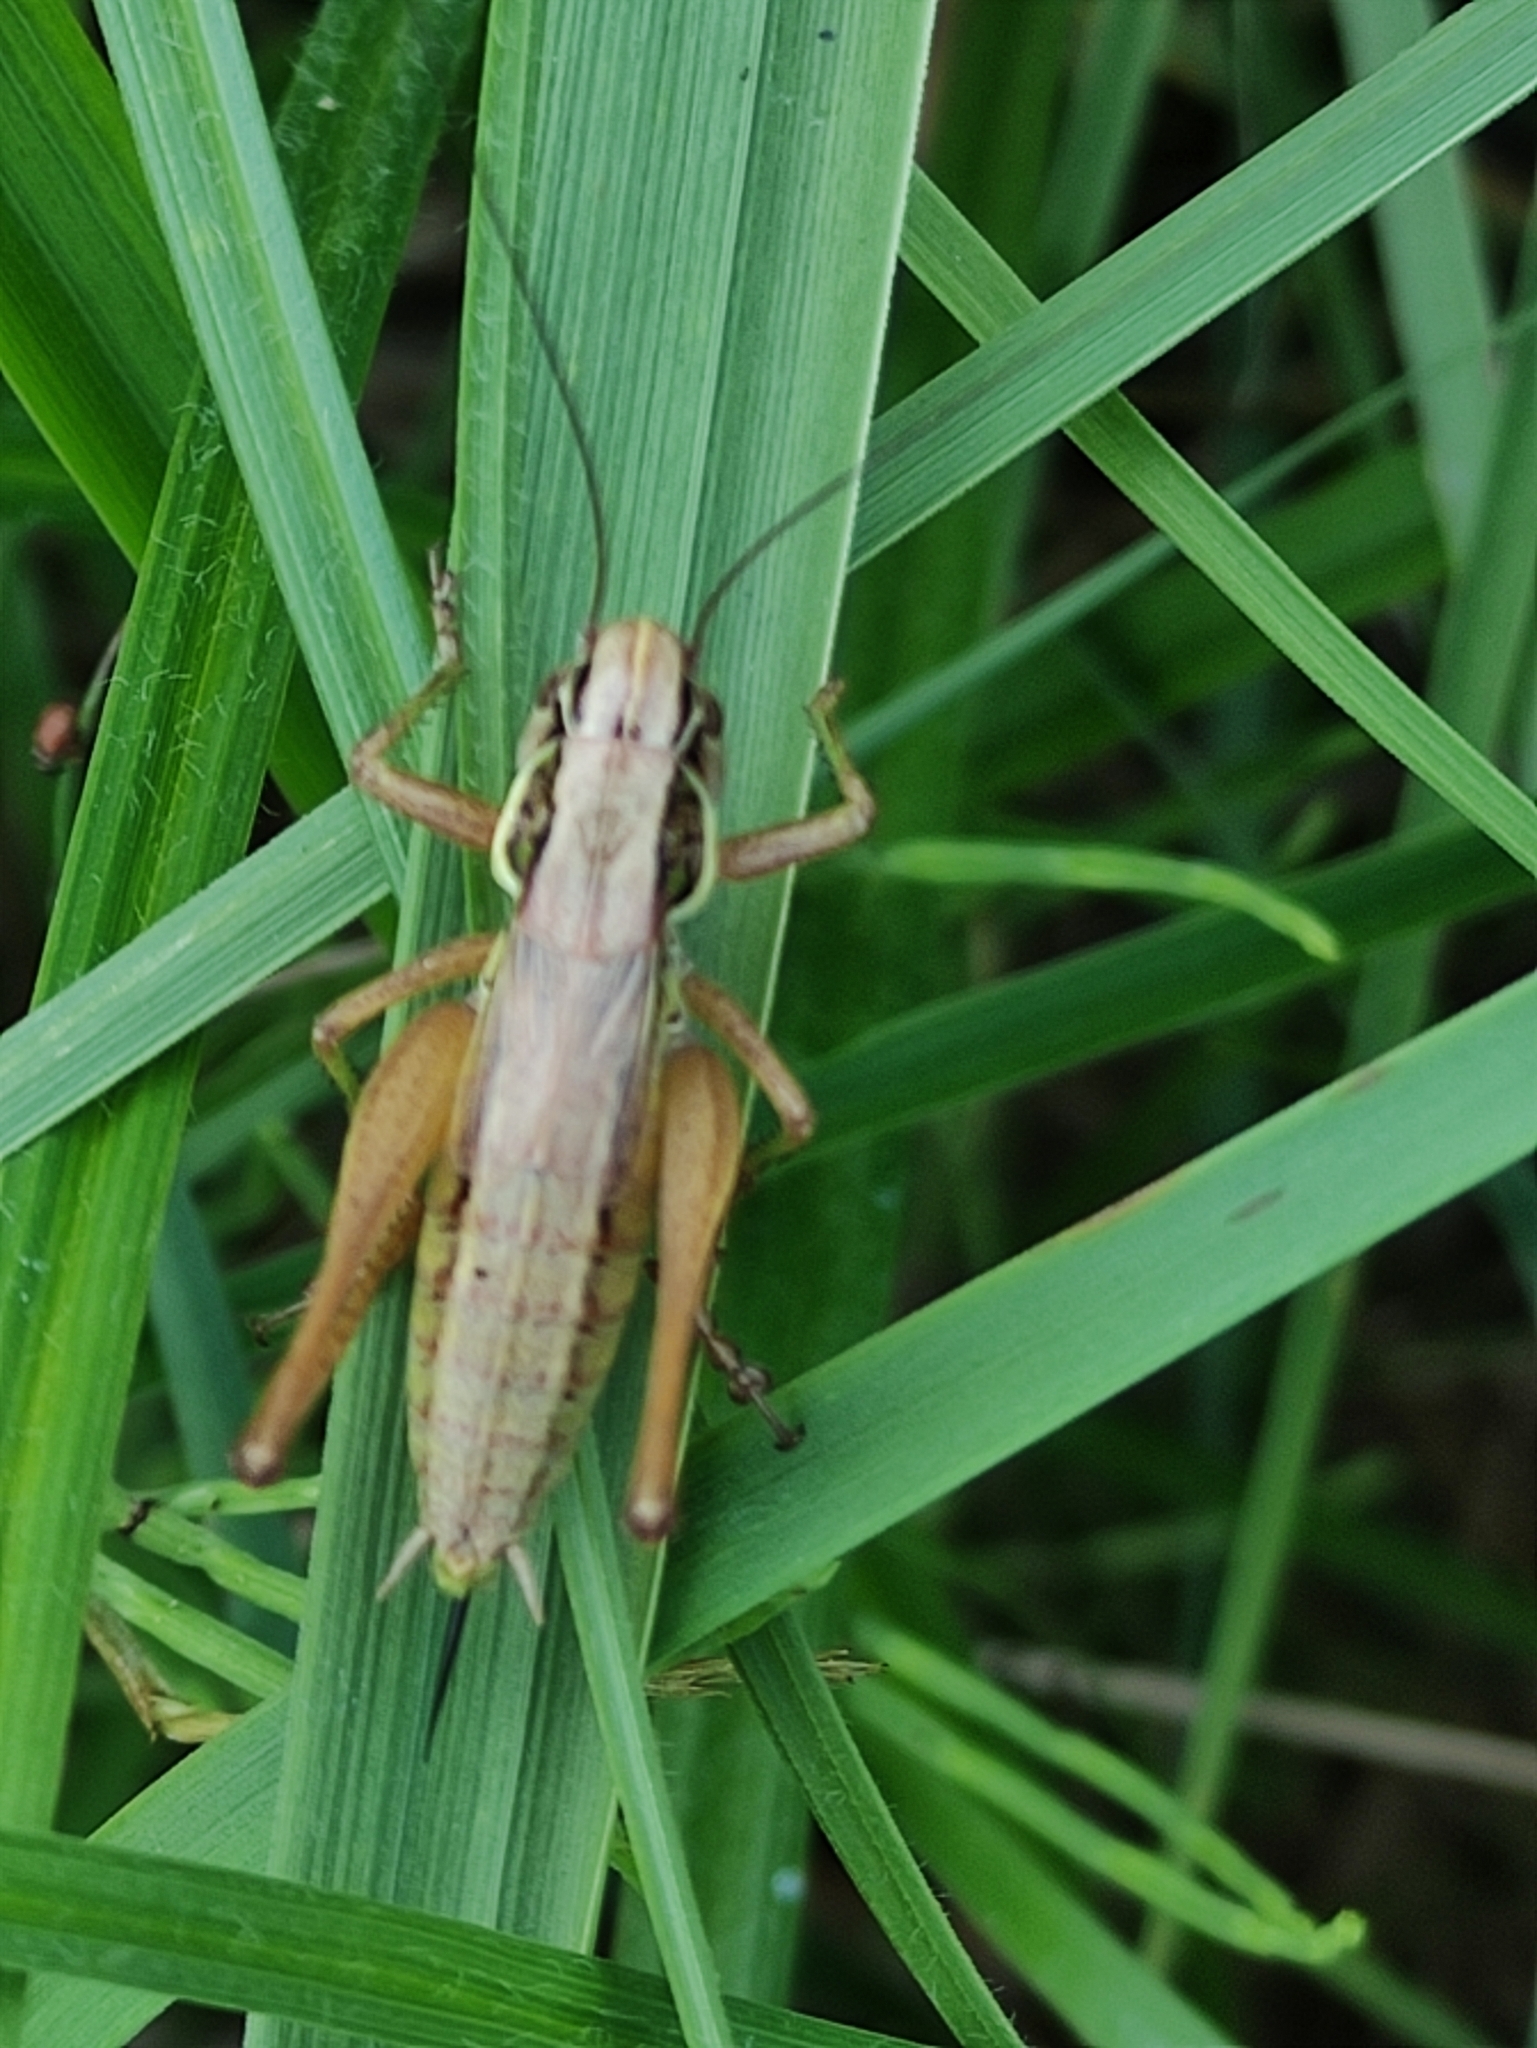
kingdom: Animalia
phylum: Arthropoda
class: Insecta
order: Orthoptera
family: Tettigoniidae
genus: Roeseliana
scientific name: Roeseliana roeselii
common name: Roesel's bush cricket
